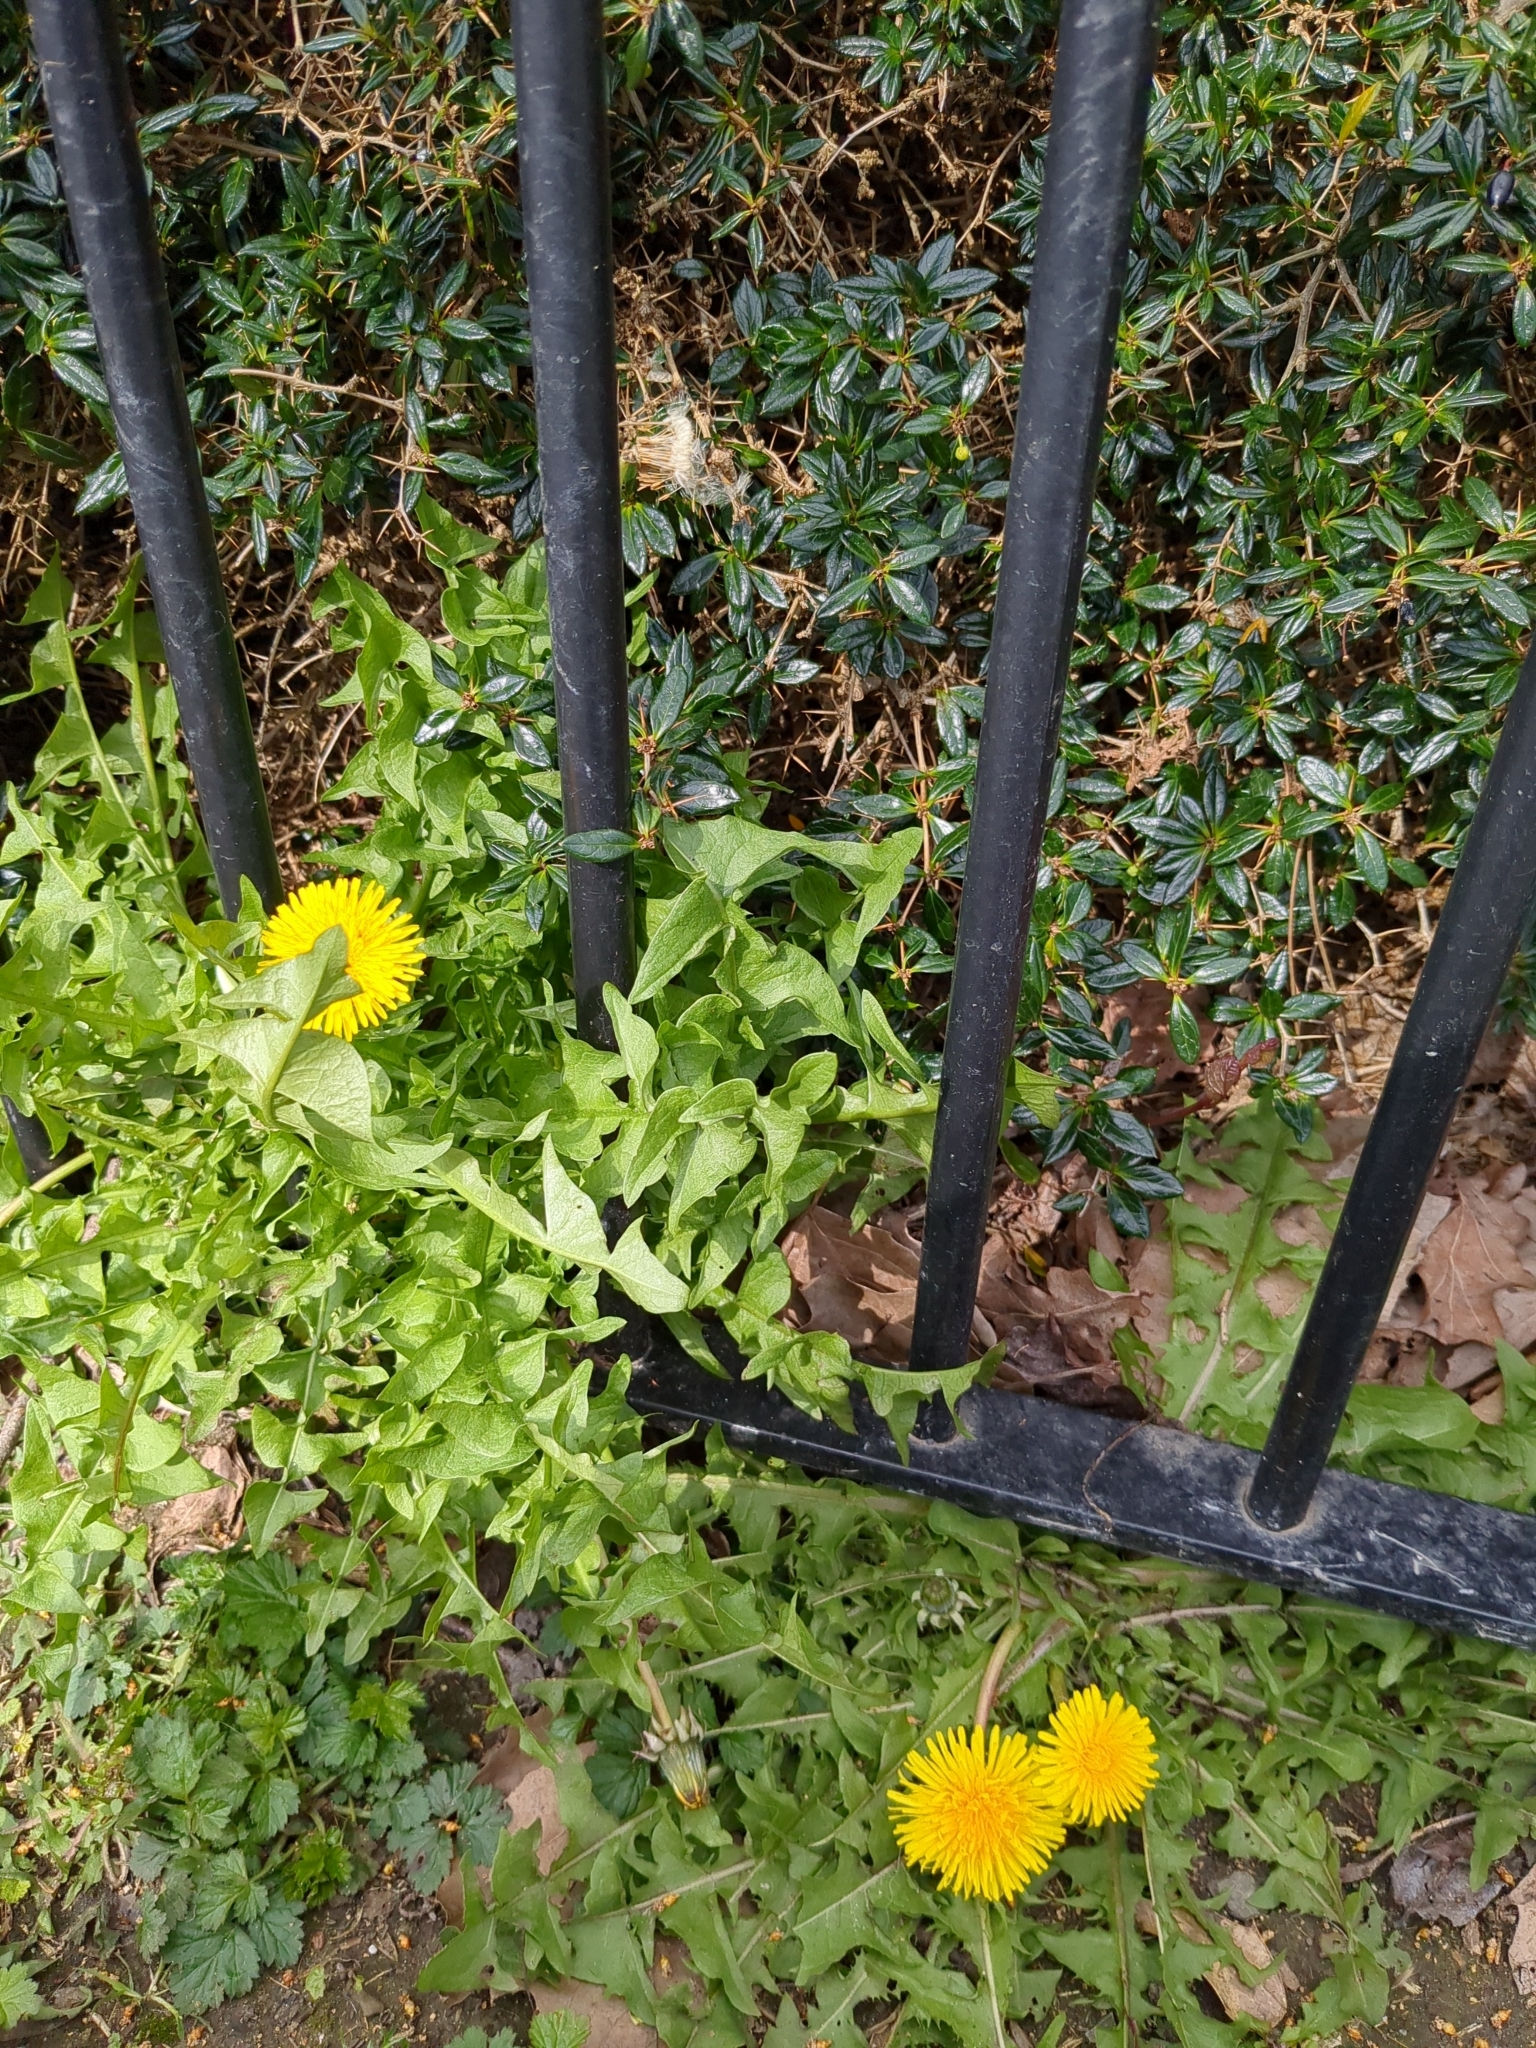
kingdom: Plantae
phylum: Tracheophyta
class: Magnoliopsida
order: Asterales
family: Asteraceae
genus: Taraxacum
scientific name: Taraxacum officinale
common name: Common dandelion
